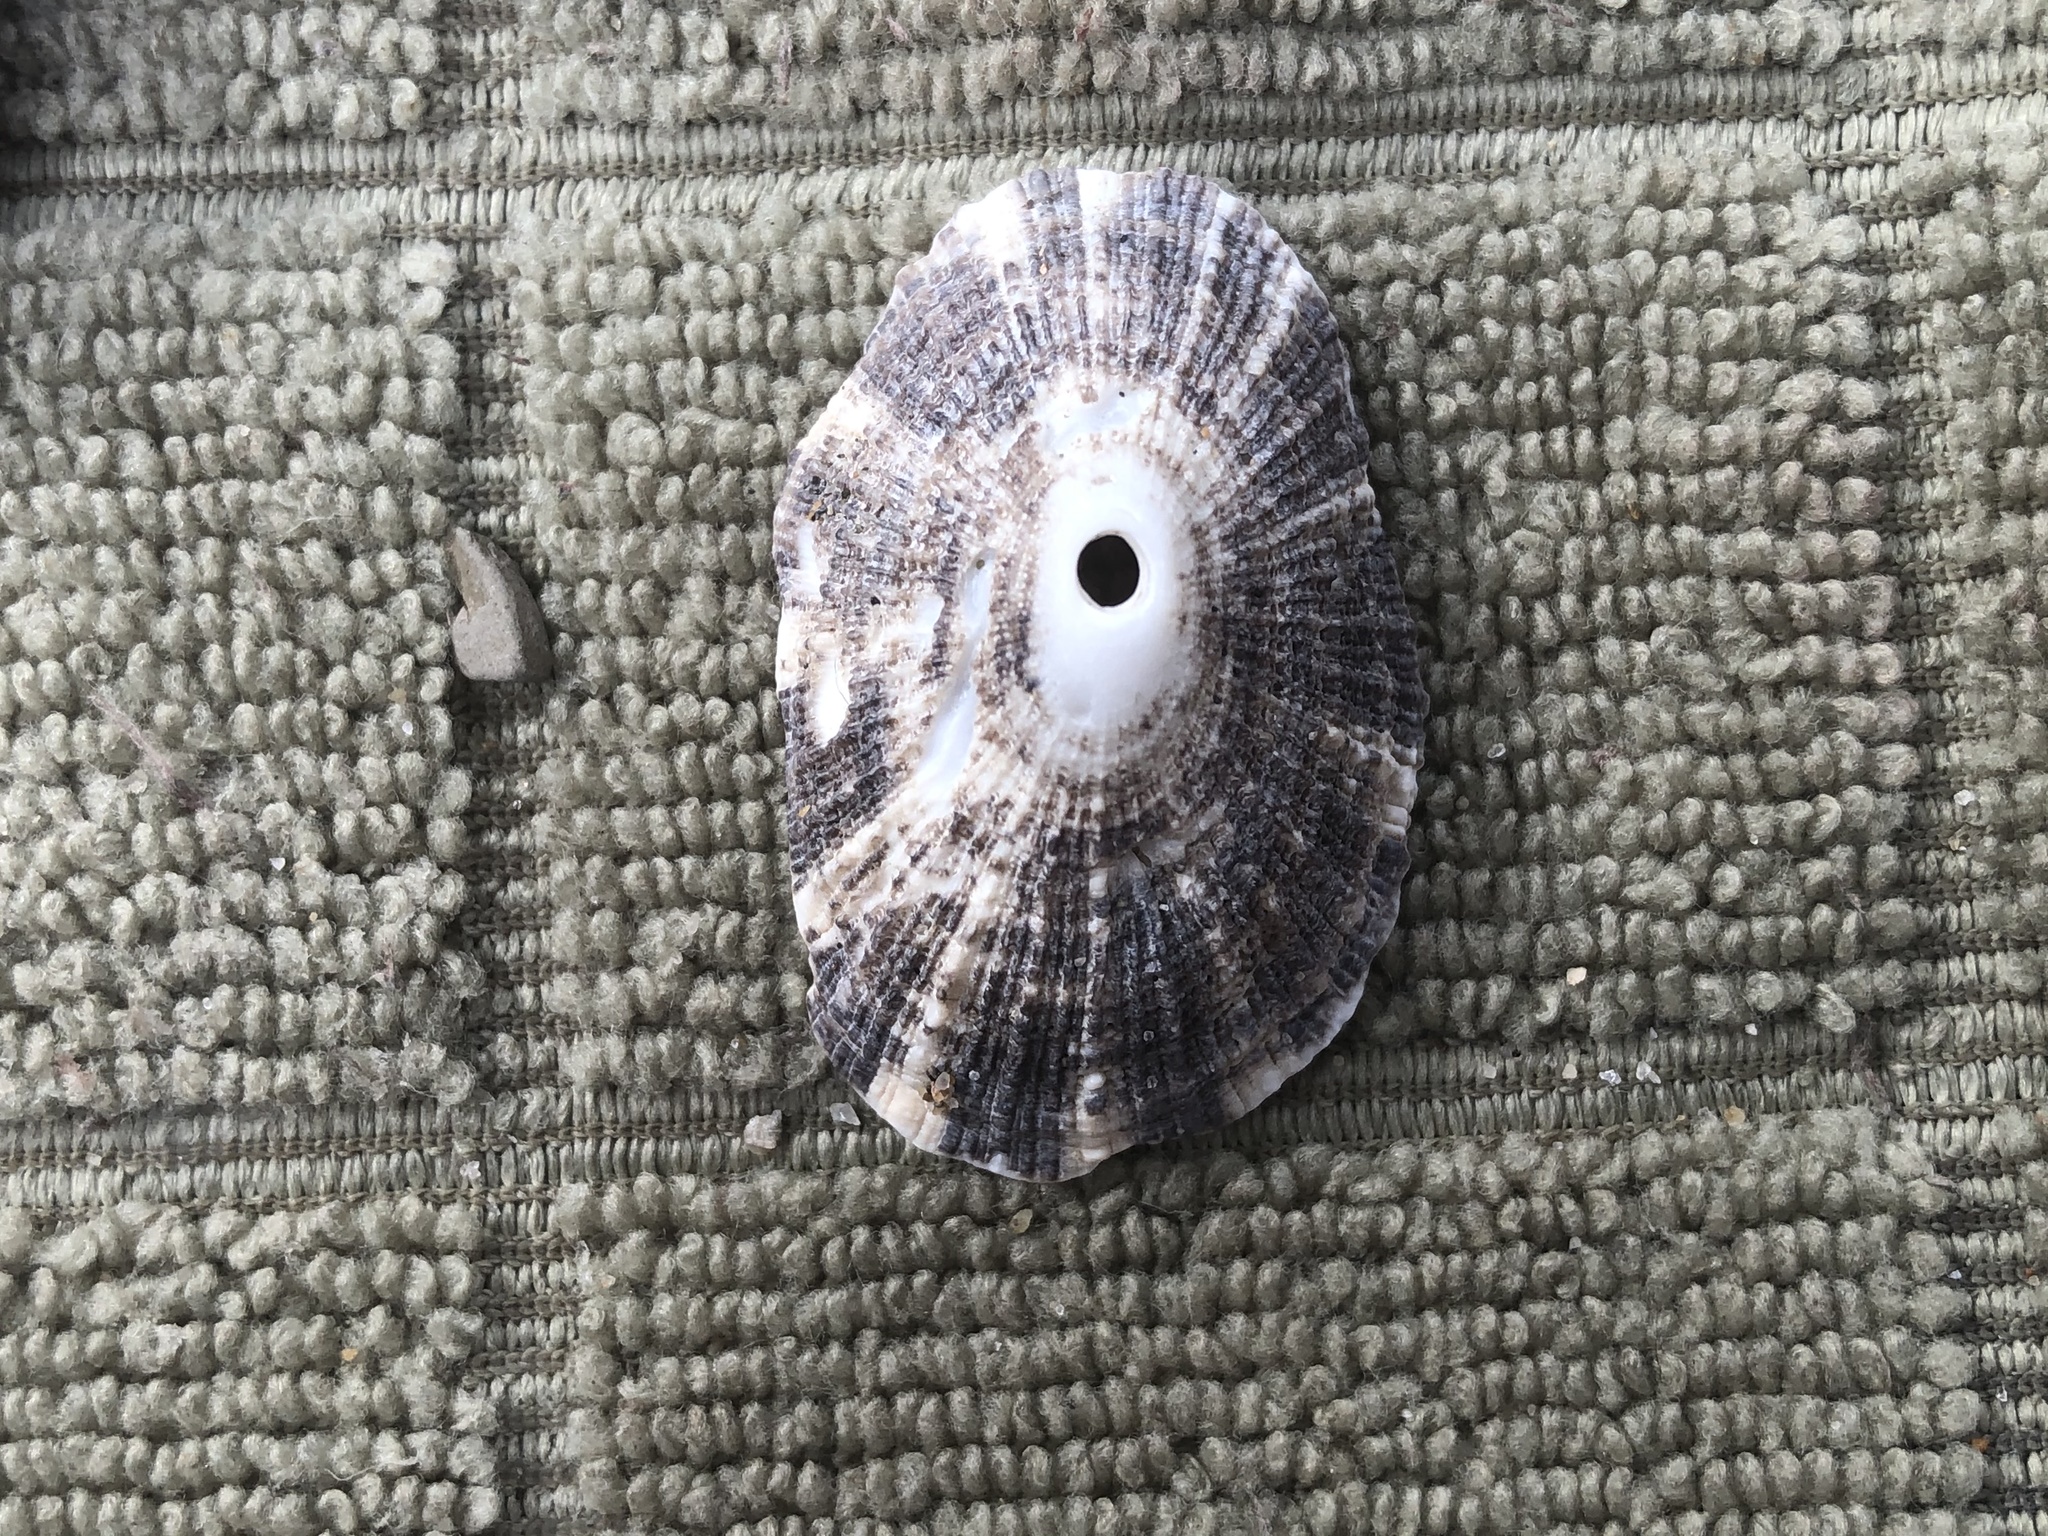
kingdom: Animalia
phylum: Mollusca
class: Gastropoda
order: Lepetellida
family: Fissurellidae
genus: Diodora
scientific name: Diodora aspera
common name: Rough keyhole limpet
